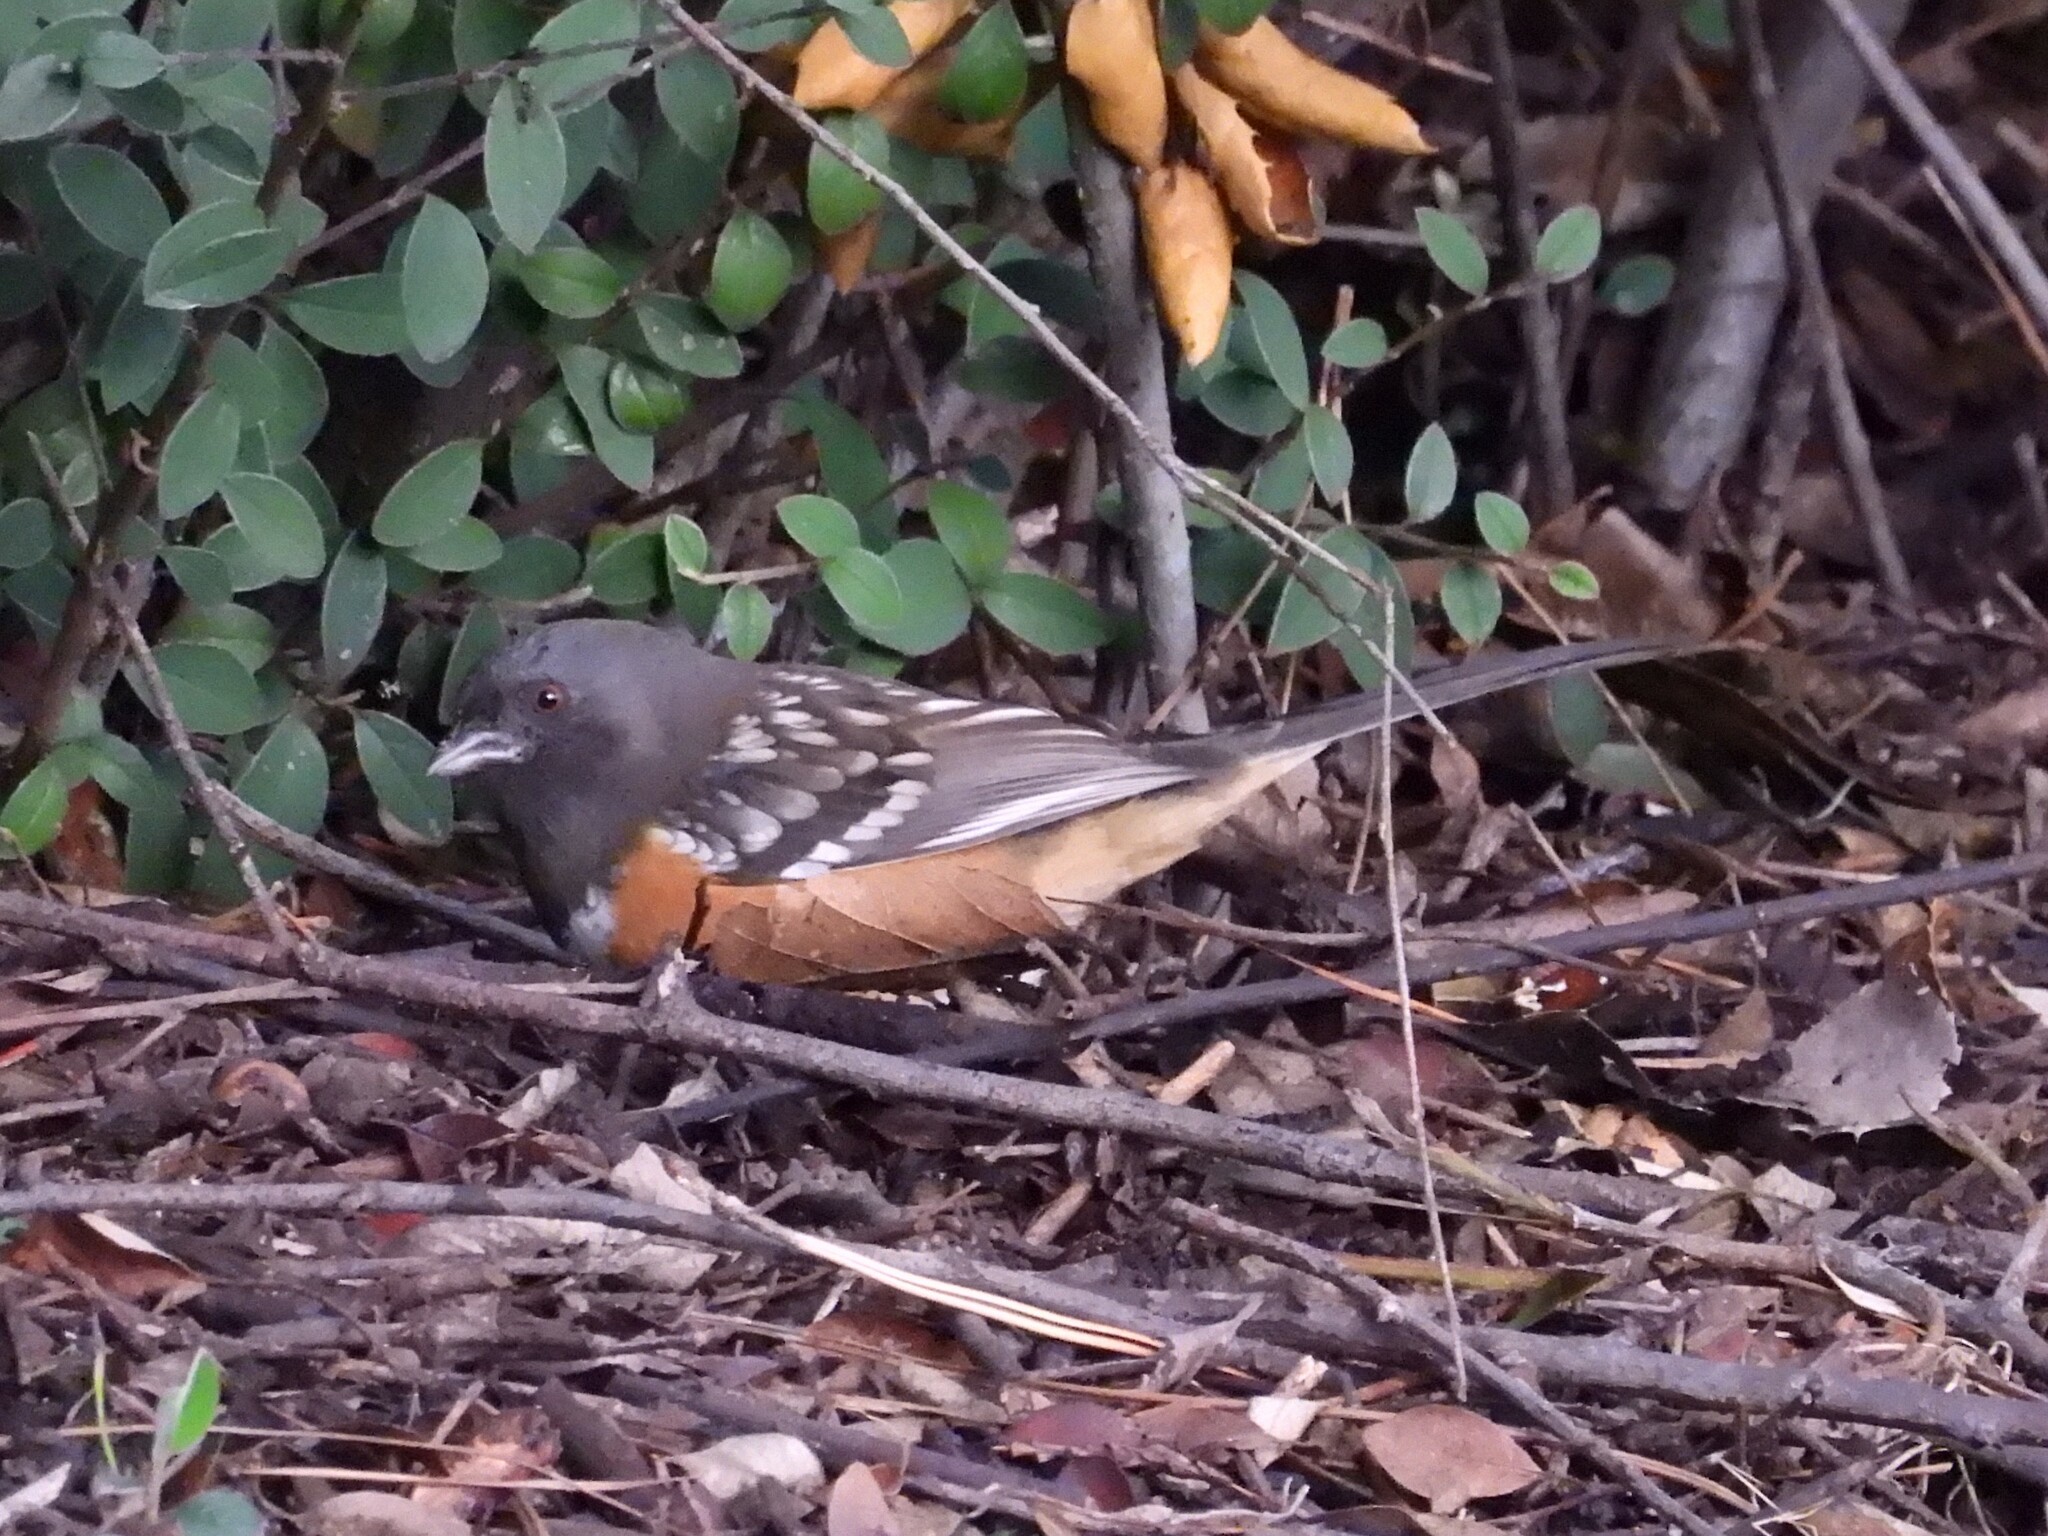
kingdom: Animalia
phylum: Chordata
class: Aves
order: Passeriformes
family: Passerellidae
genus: Pipilo
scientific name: Pipilo maculatus
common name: Spotted towhee
